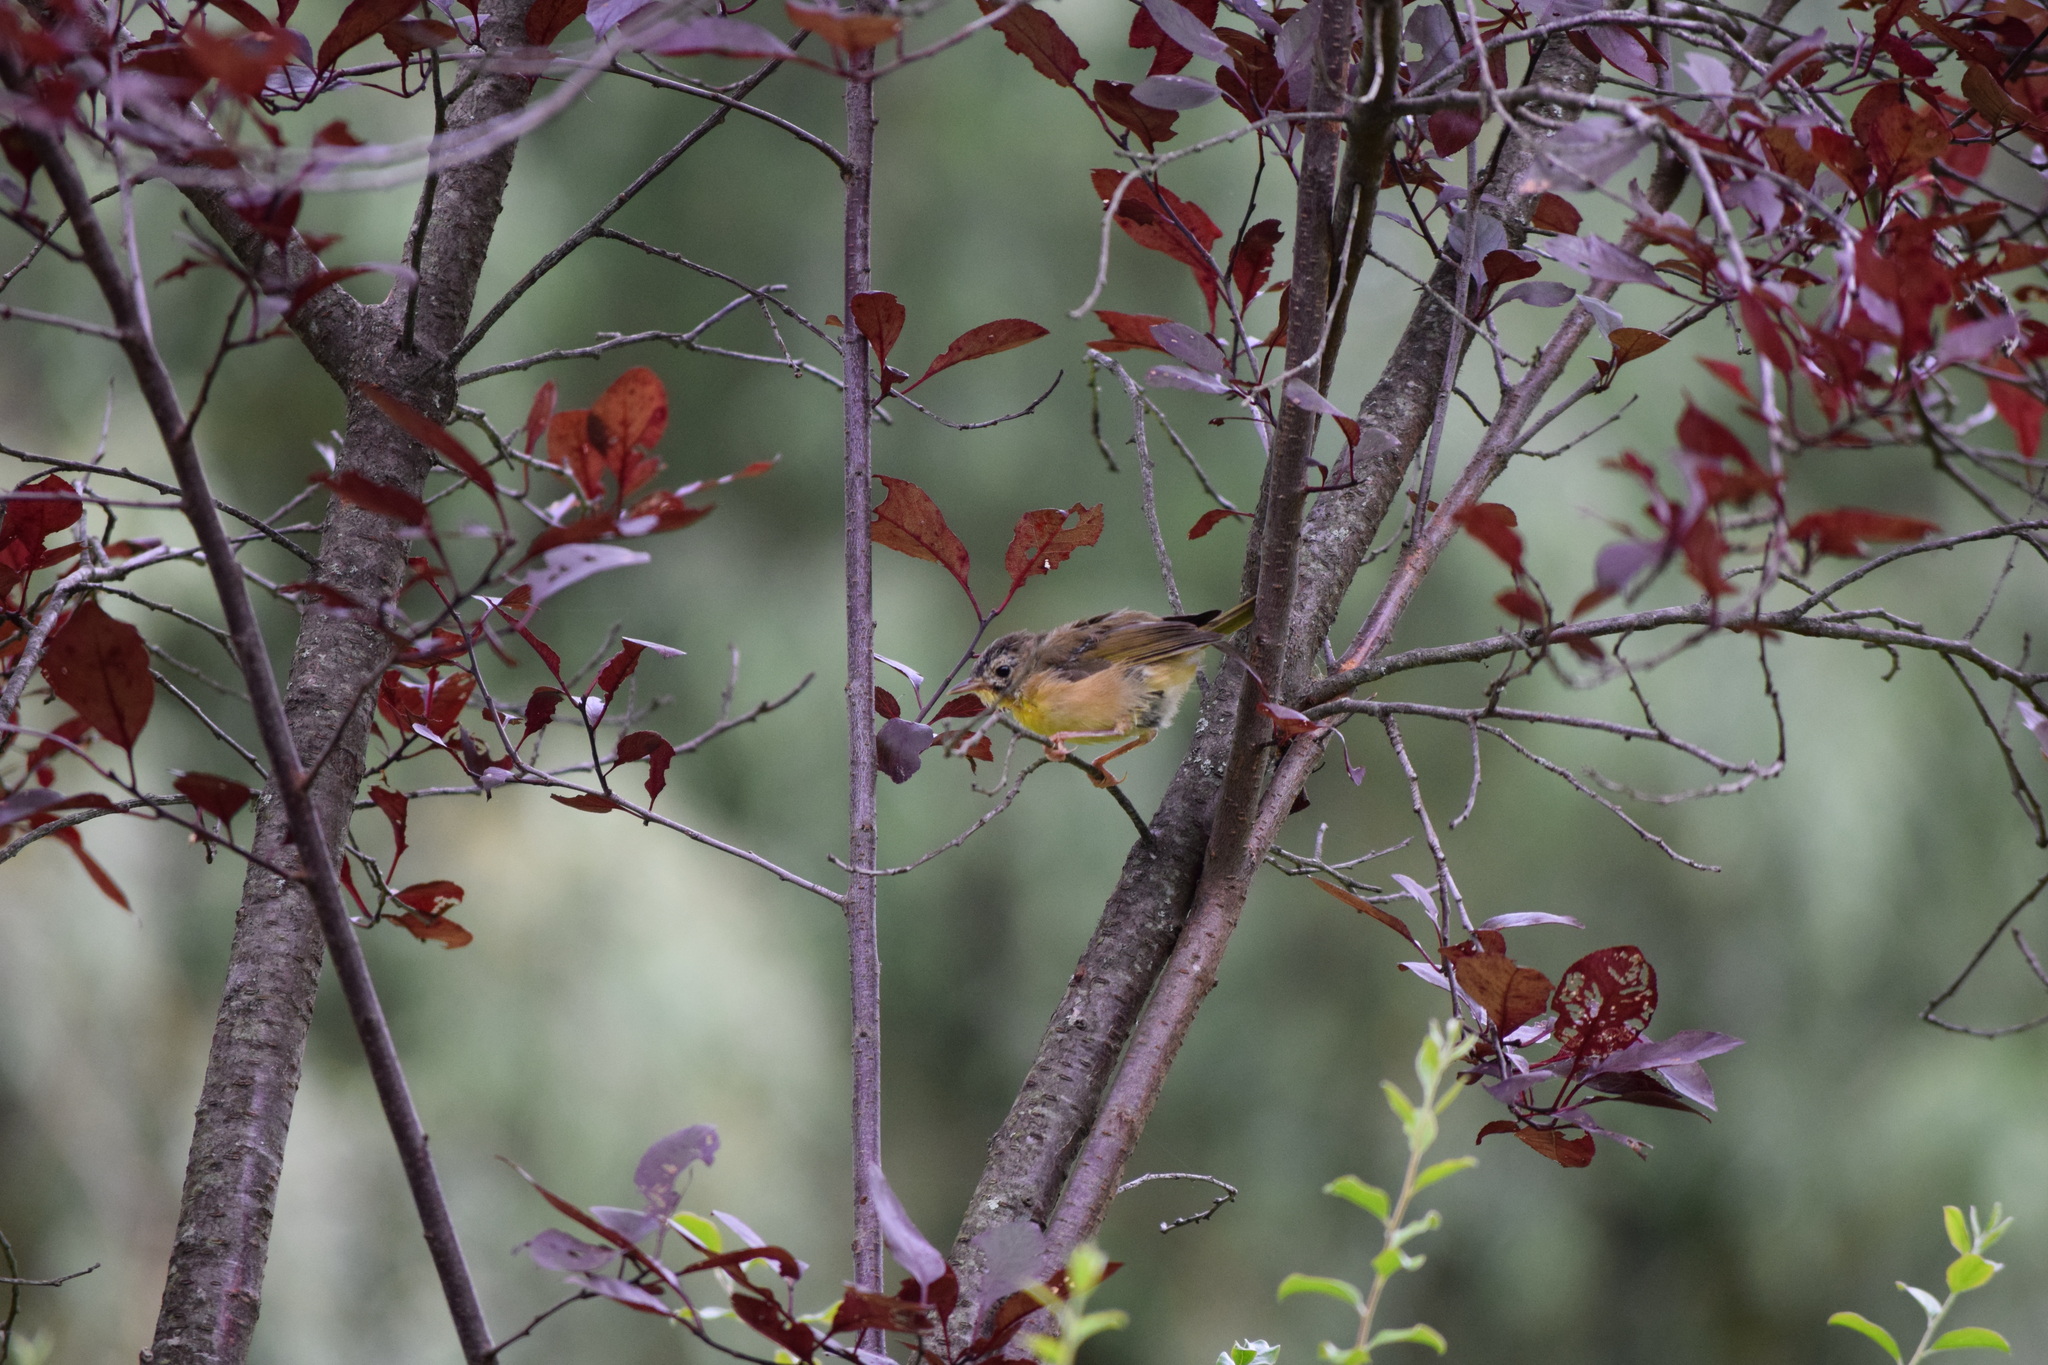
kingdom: Animalia
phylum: Chordata
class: Aves
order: Passeriformes
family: Parulidae
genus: Geothlypis
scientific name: Geothlypis trichas
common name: Common yellowthroat
